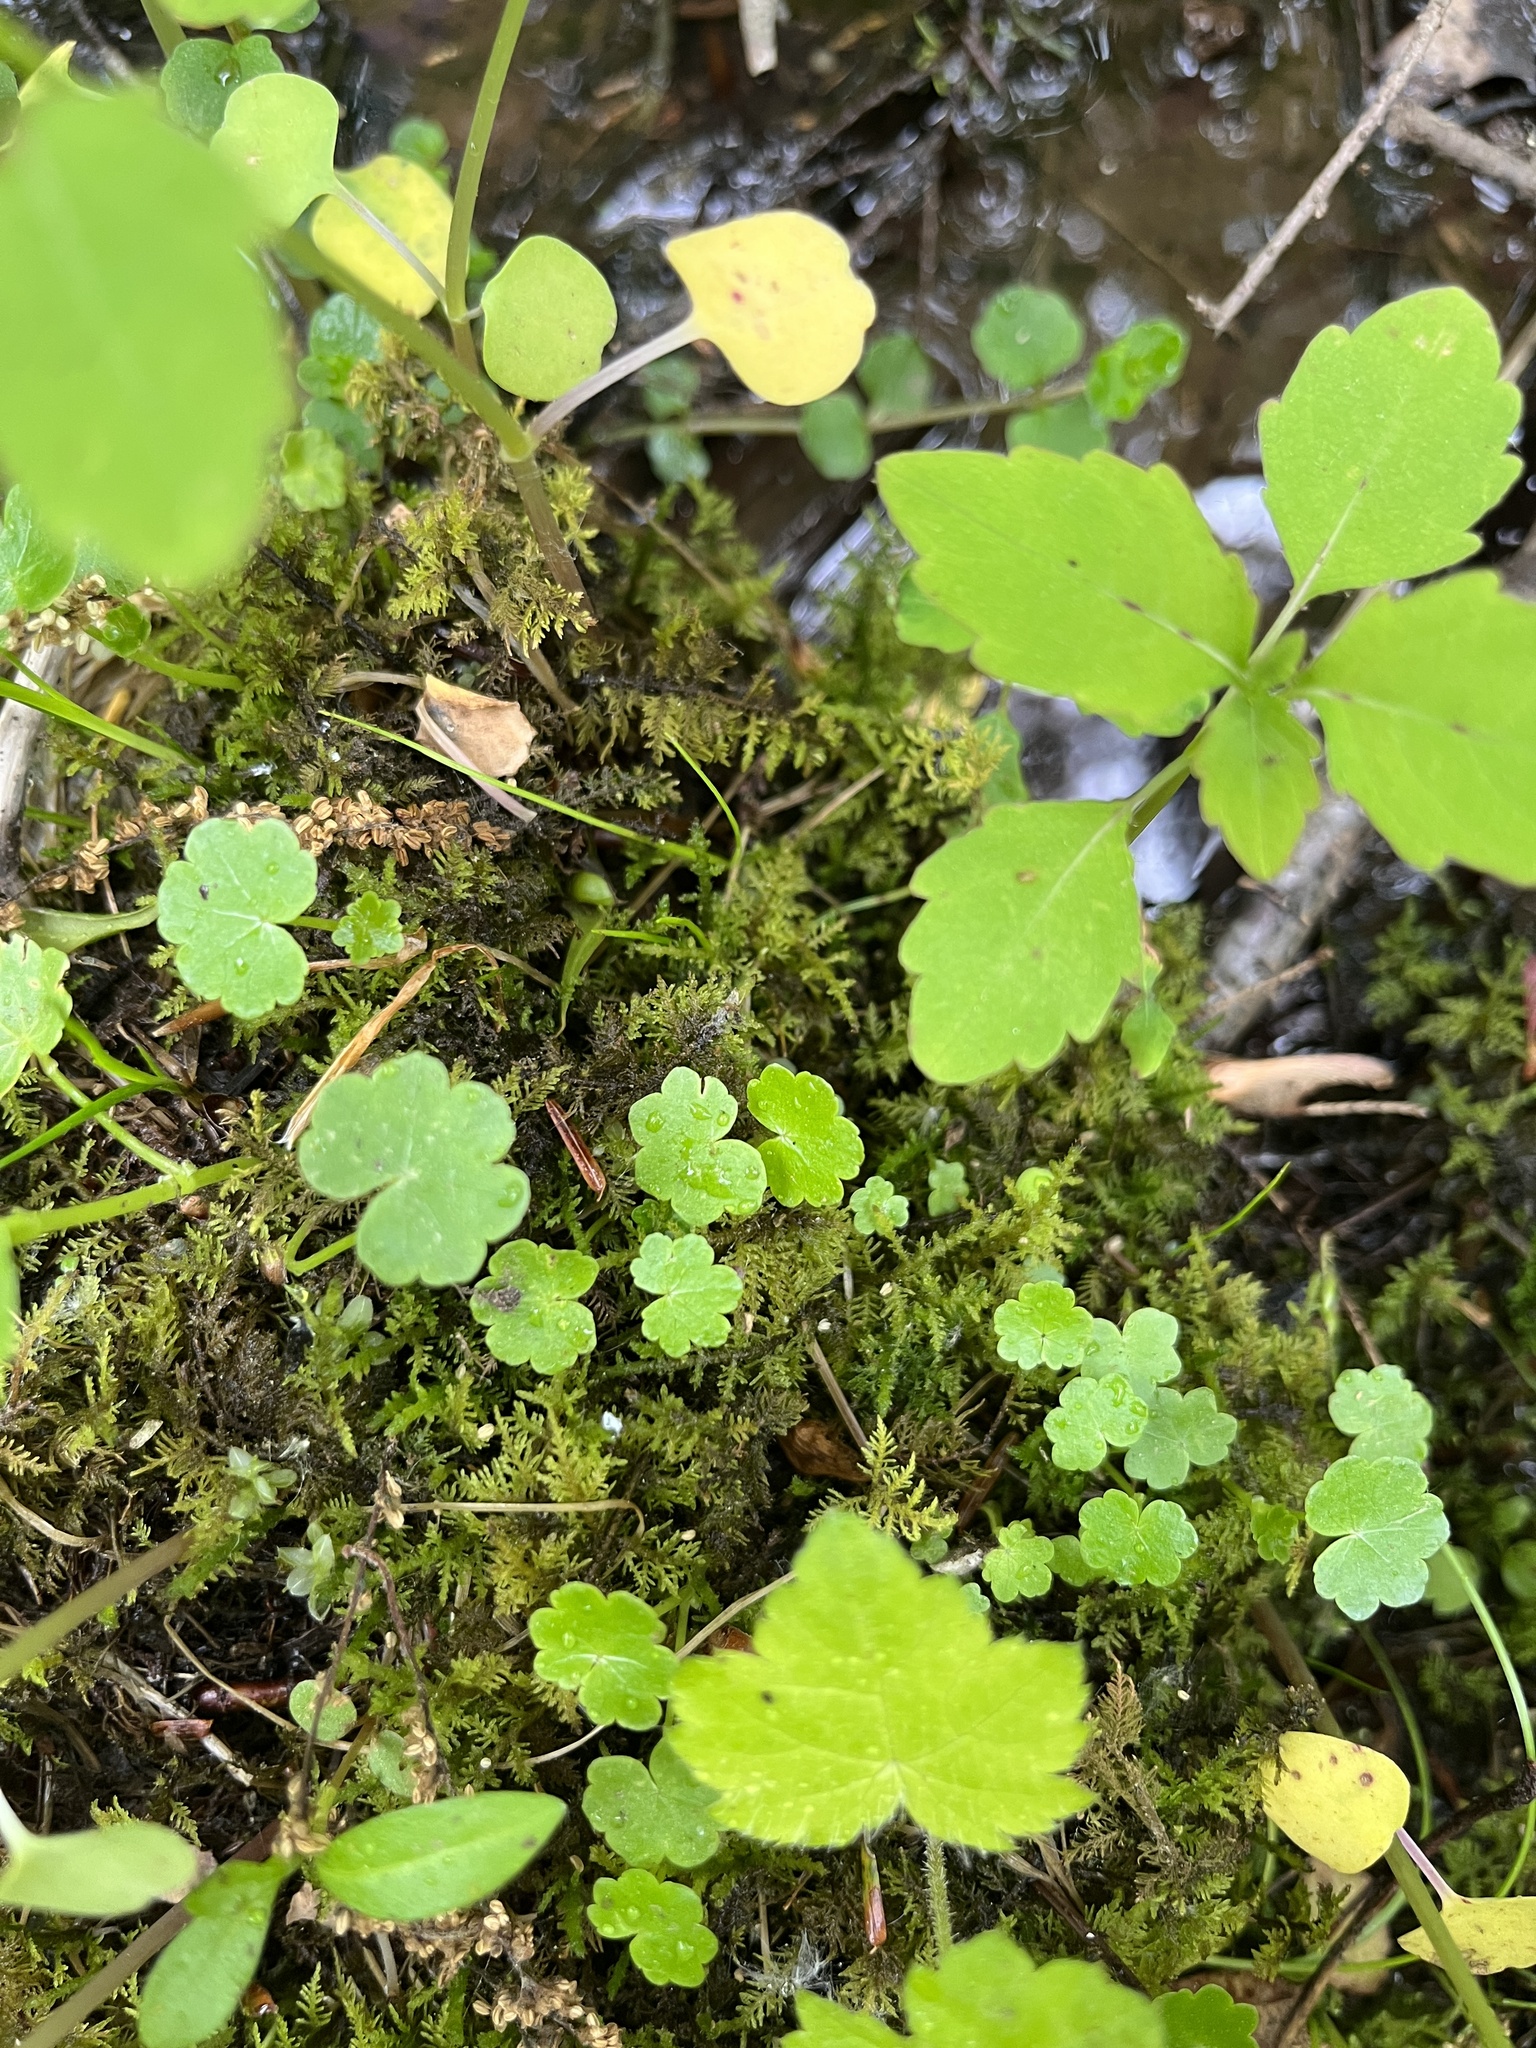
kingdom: Plantae
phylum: Tracheophyta
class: Magnoliopsida
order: Apiales
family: Araliaceae
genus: Hydrocotyle
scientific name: Hydrocotyle americana
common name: American water-pennywort
